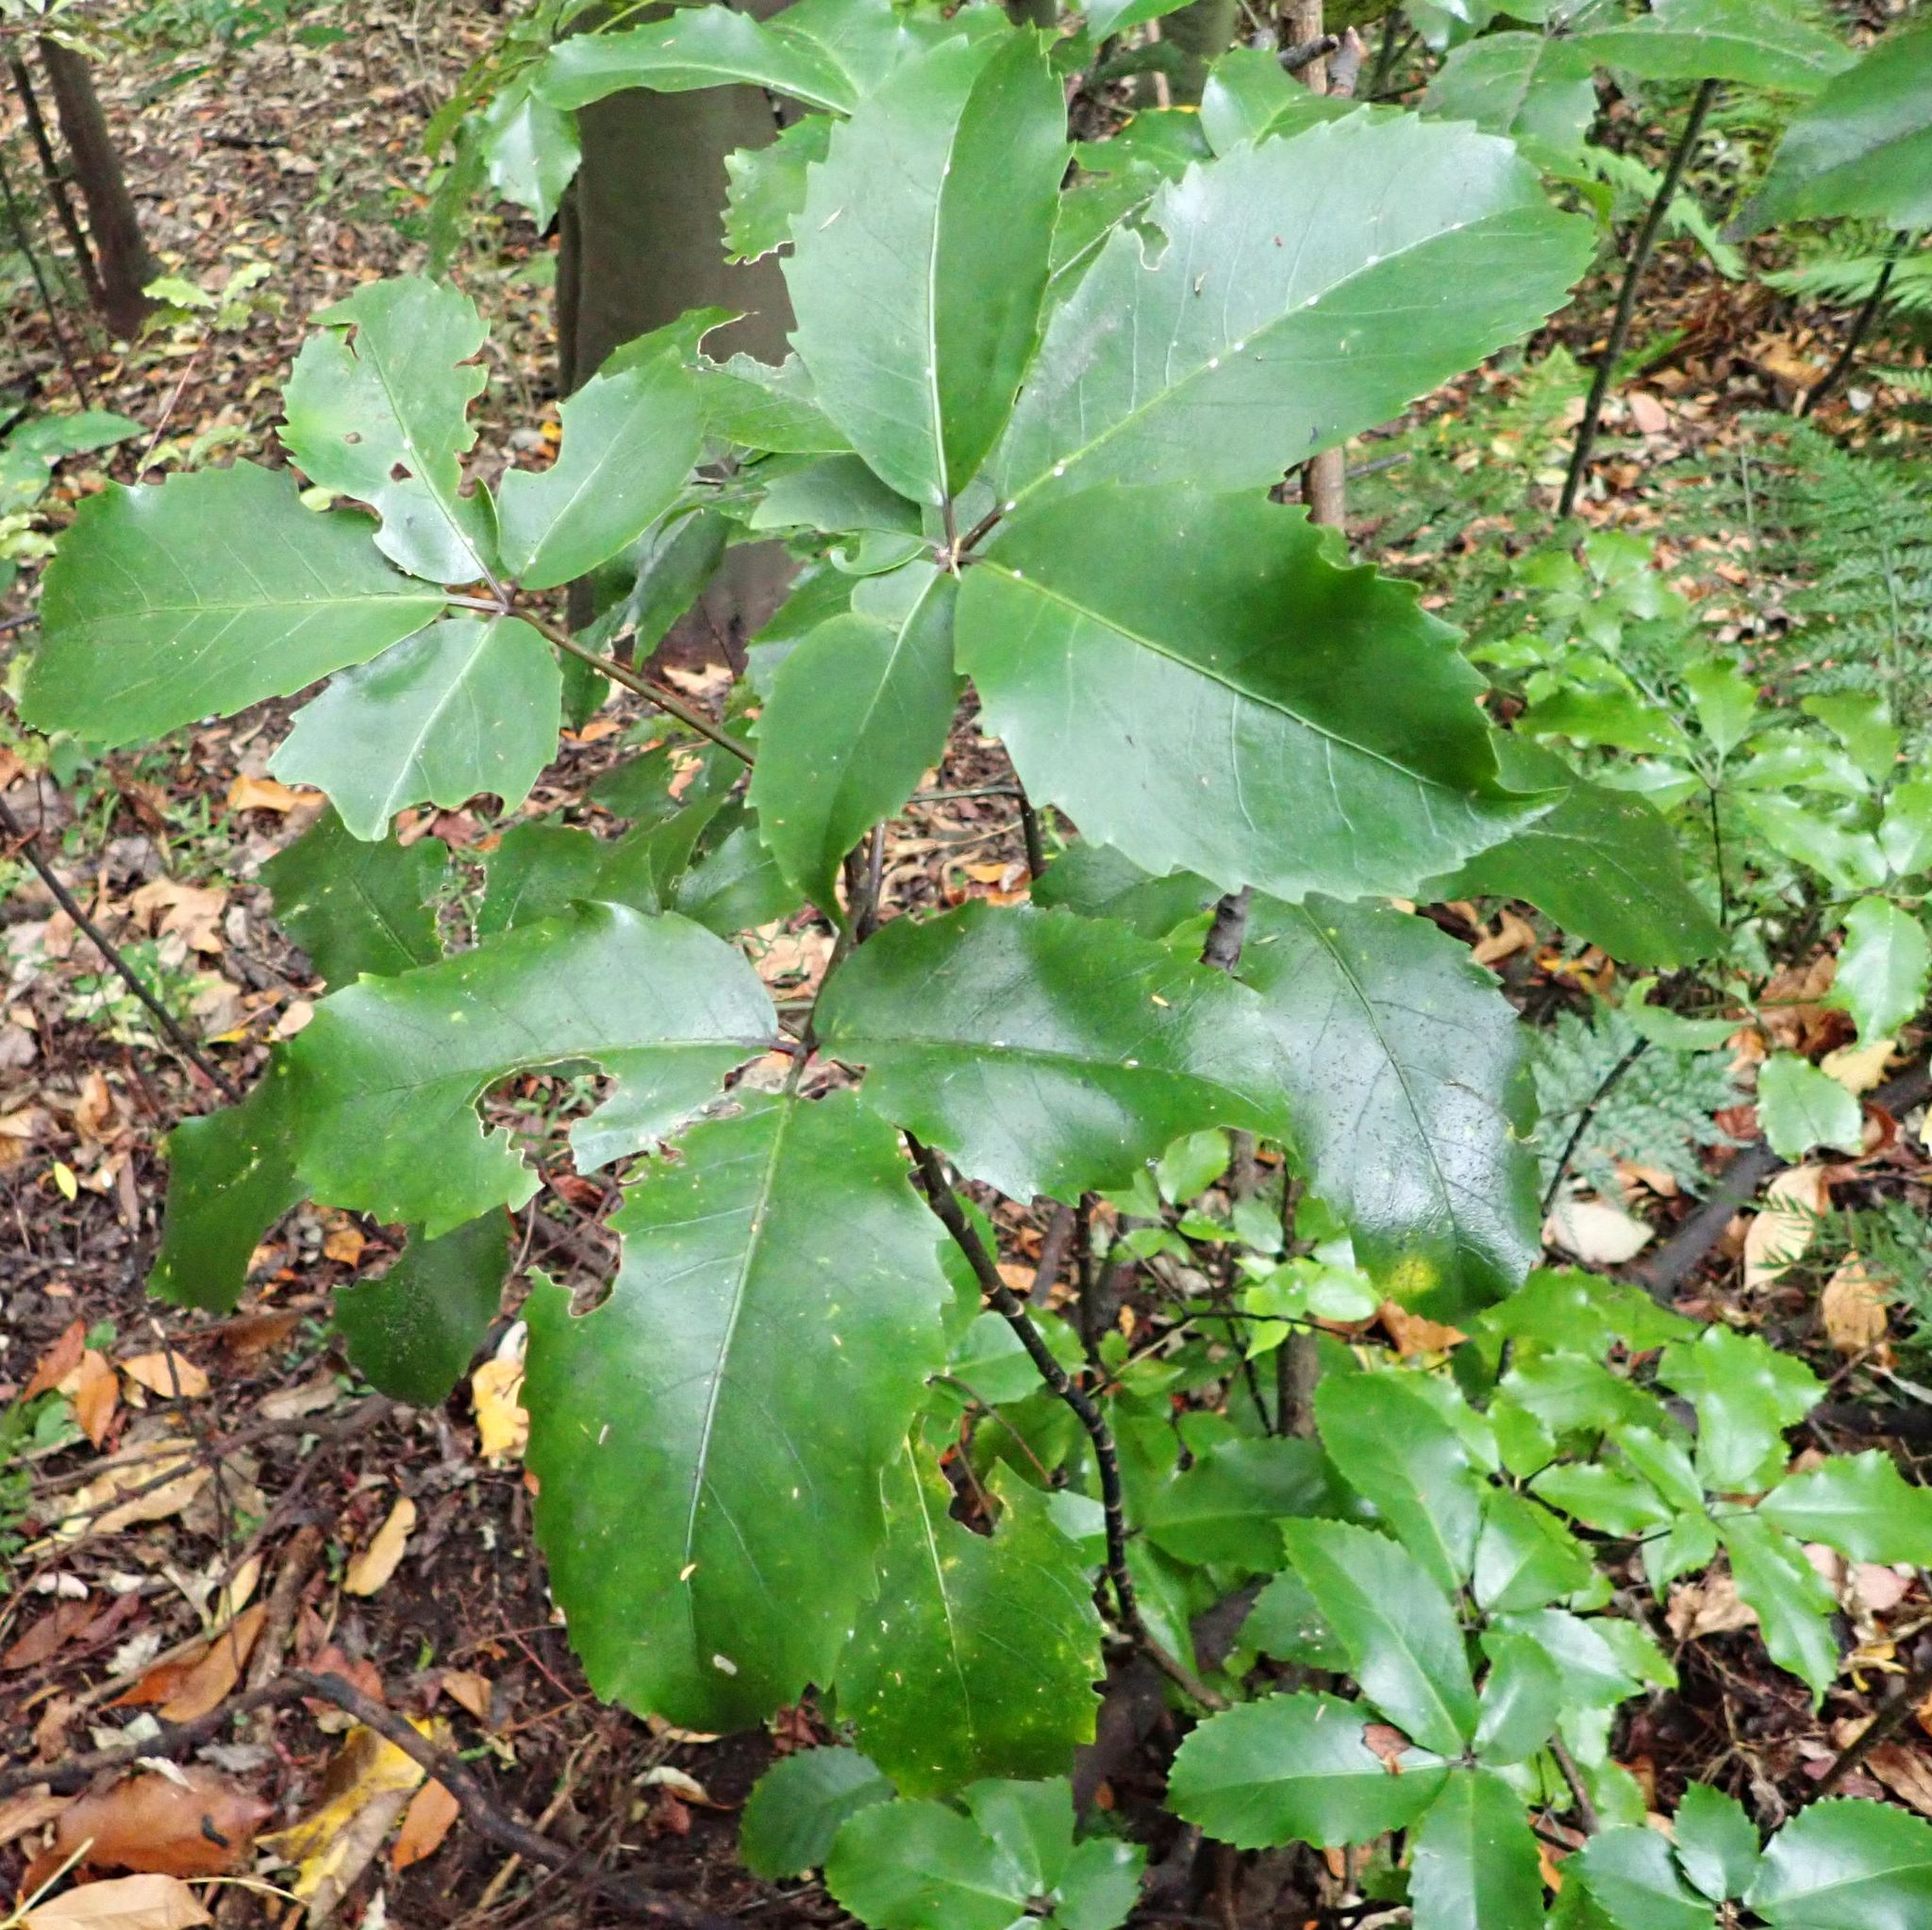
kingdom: Plantae
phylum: Tracheophyta
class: Magnoliopsida
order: Apiales
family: Araliaceae
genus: Neopanax
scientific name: Neopanax colensoi
